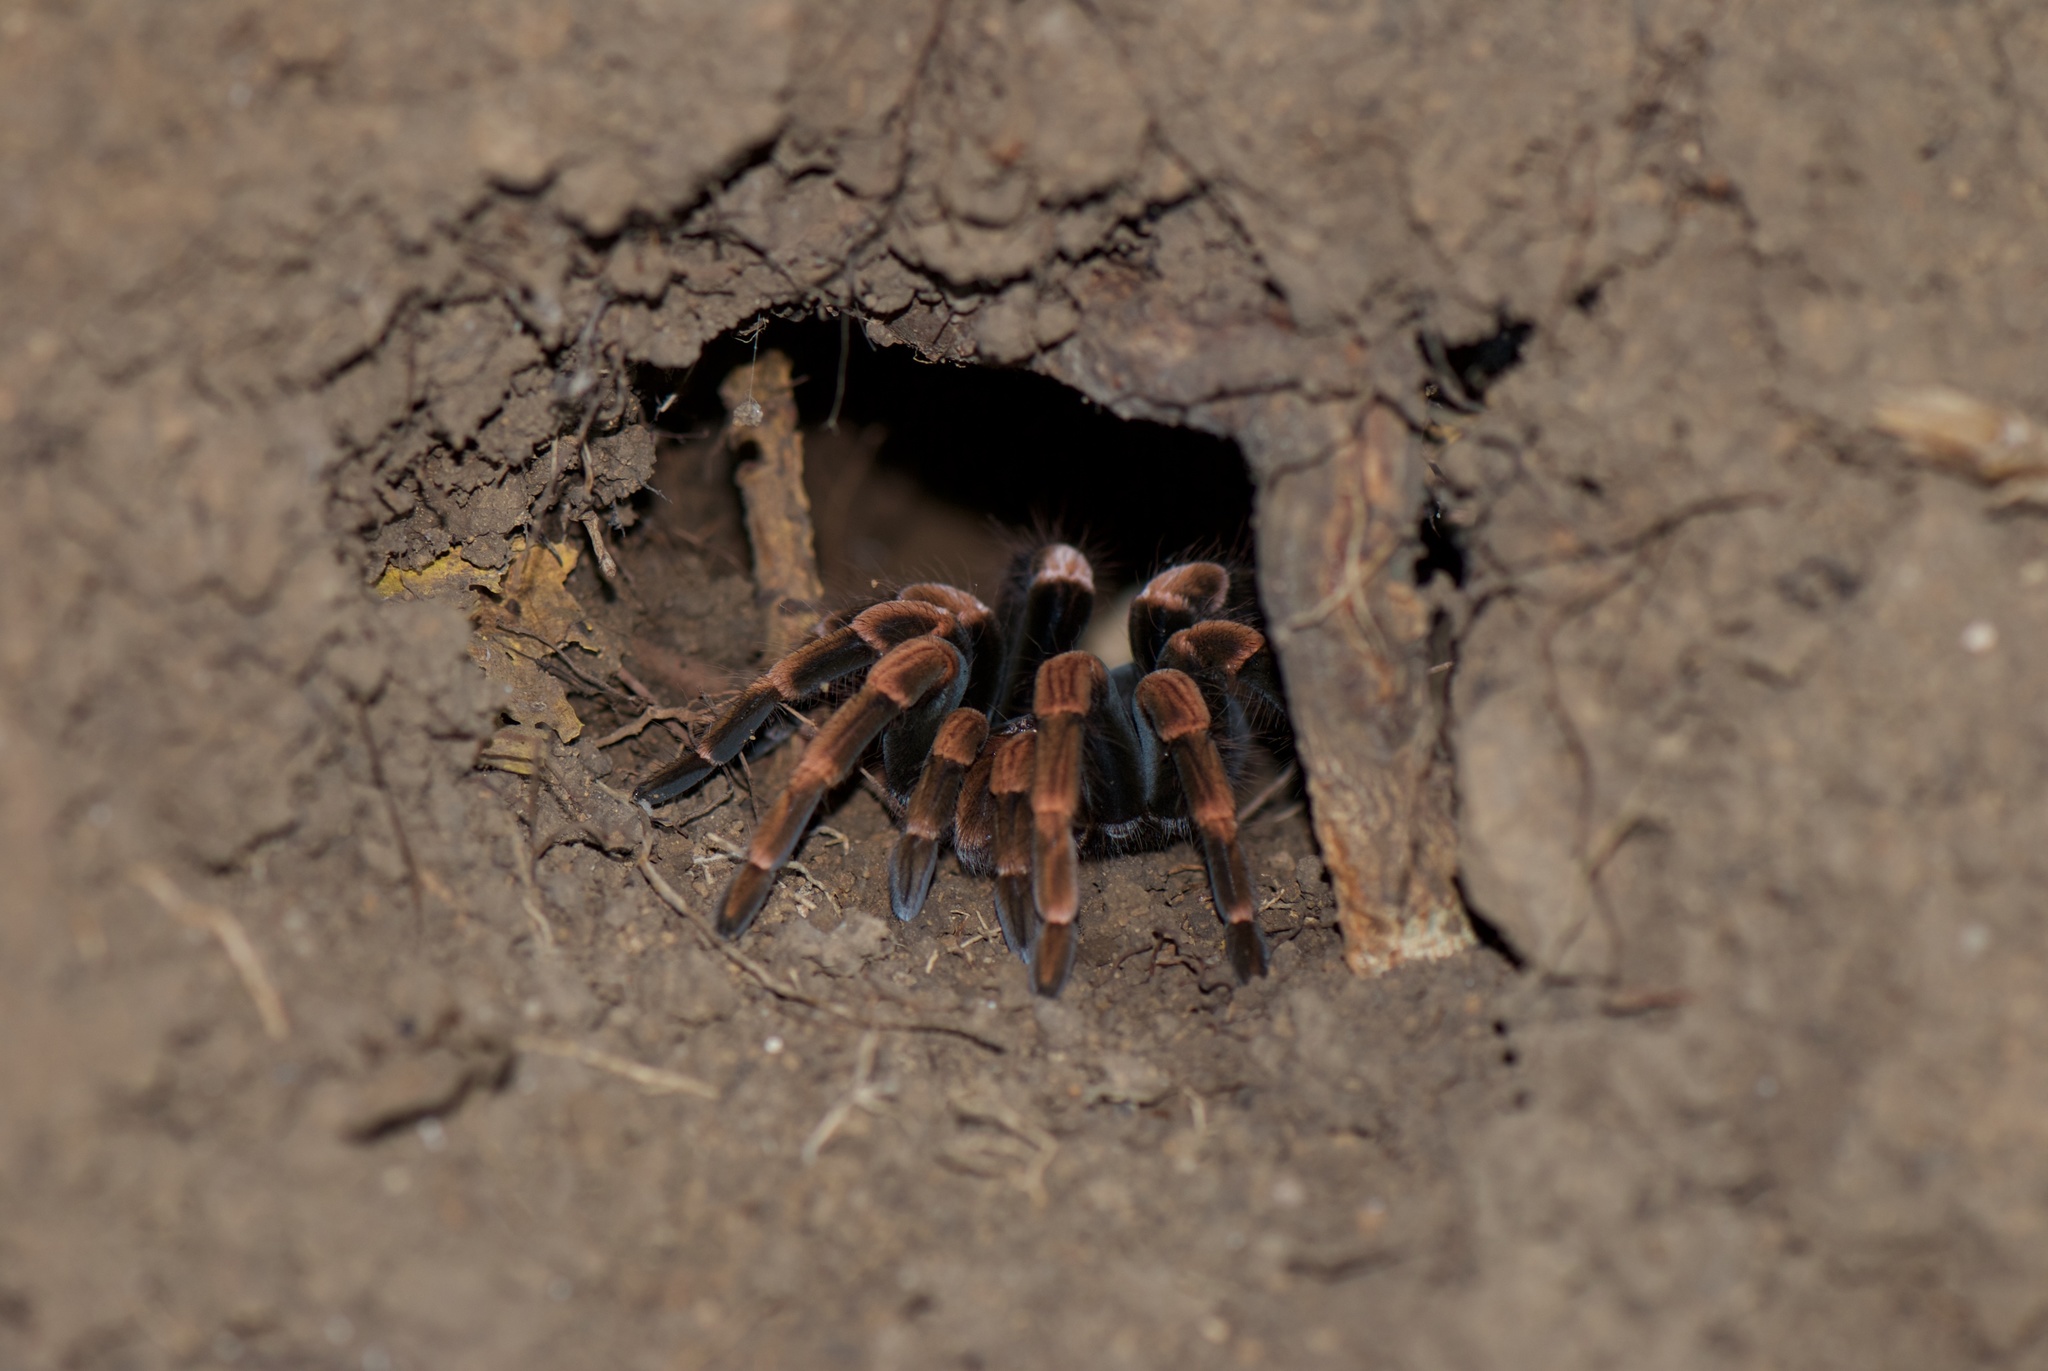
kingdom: Animalia
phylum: Arthropoda
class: Arachnida
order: Araneae
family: Theraphosidae
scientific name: Theraphosidae
